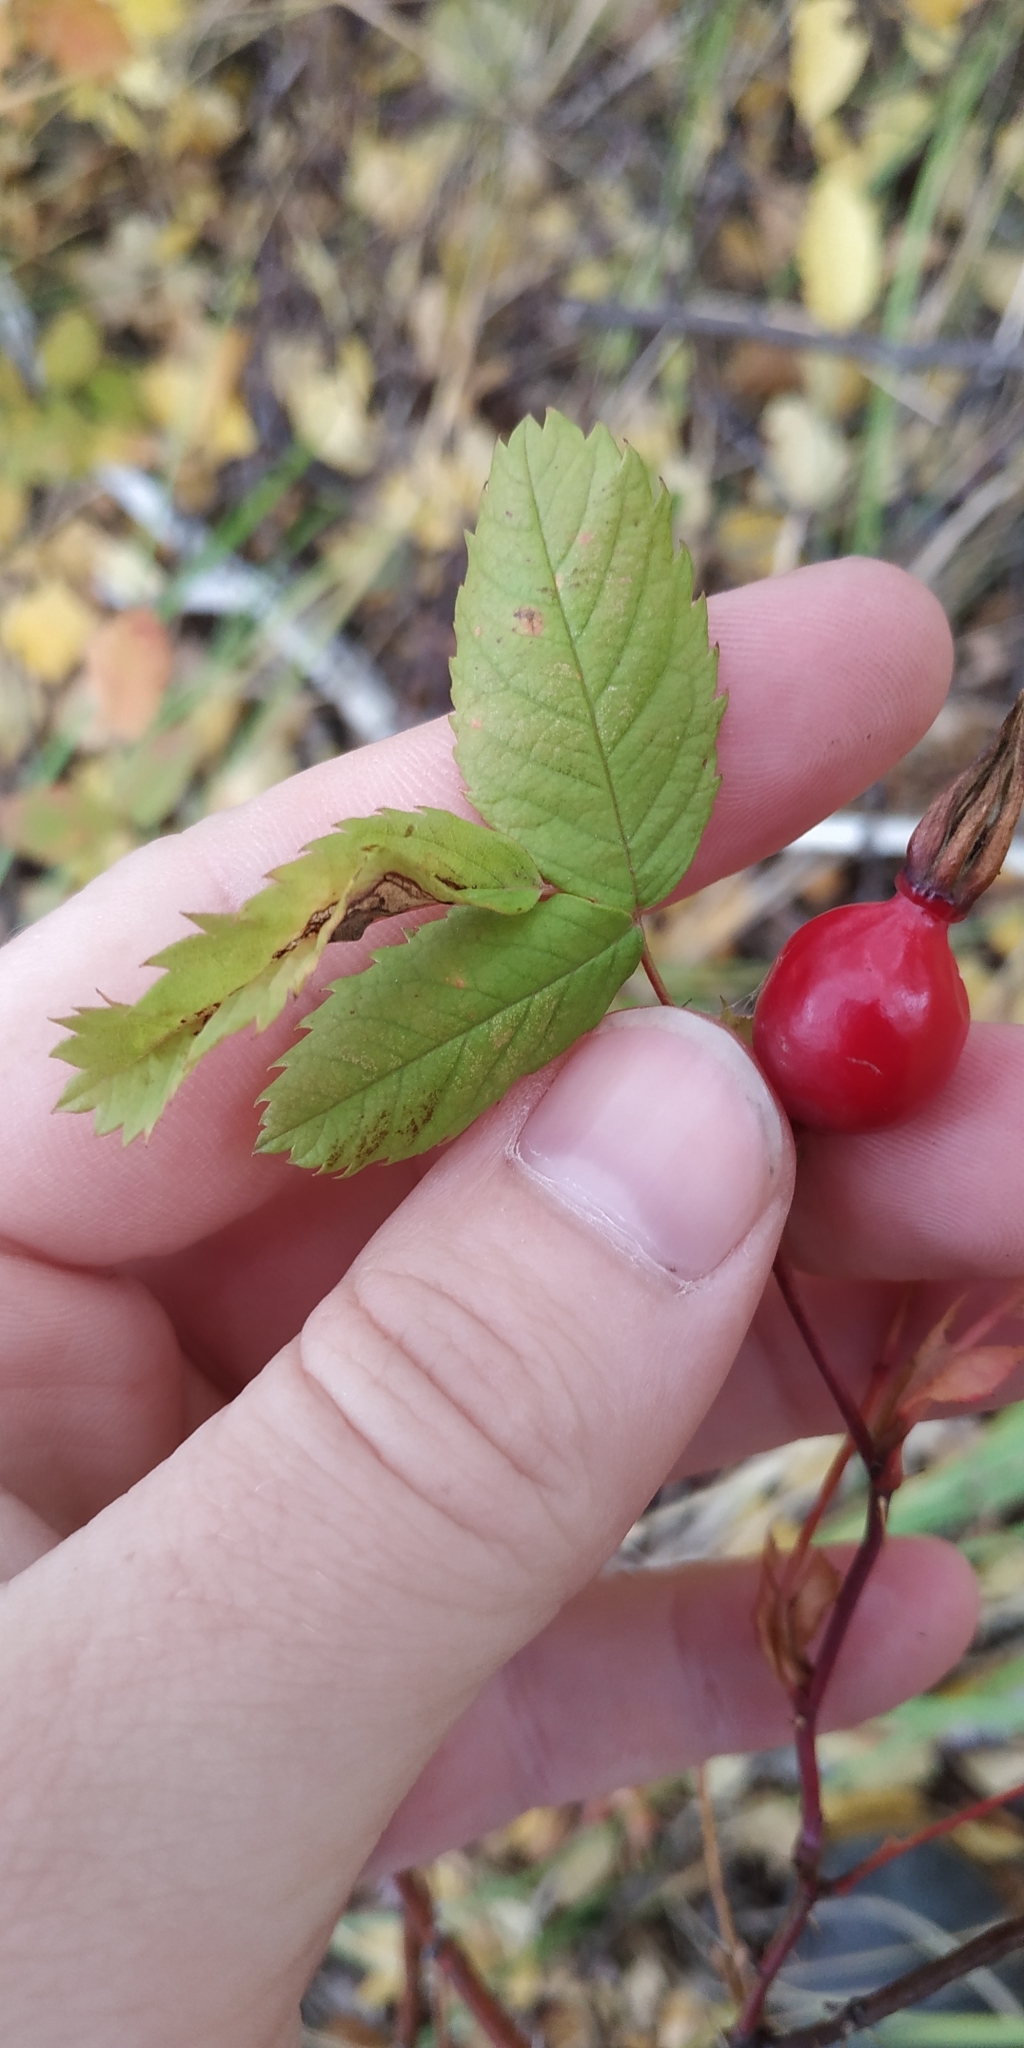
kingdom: Plantae
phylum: Tracheophyta
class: Magnoliopsida
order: Rosales
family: Rosaceae
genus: Rosa
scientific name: Rosa glabrifolia
